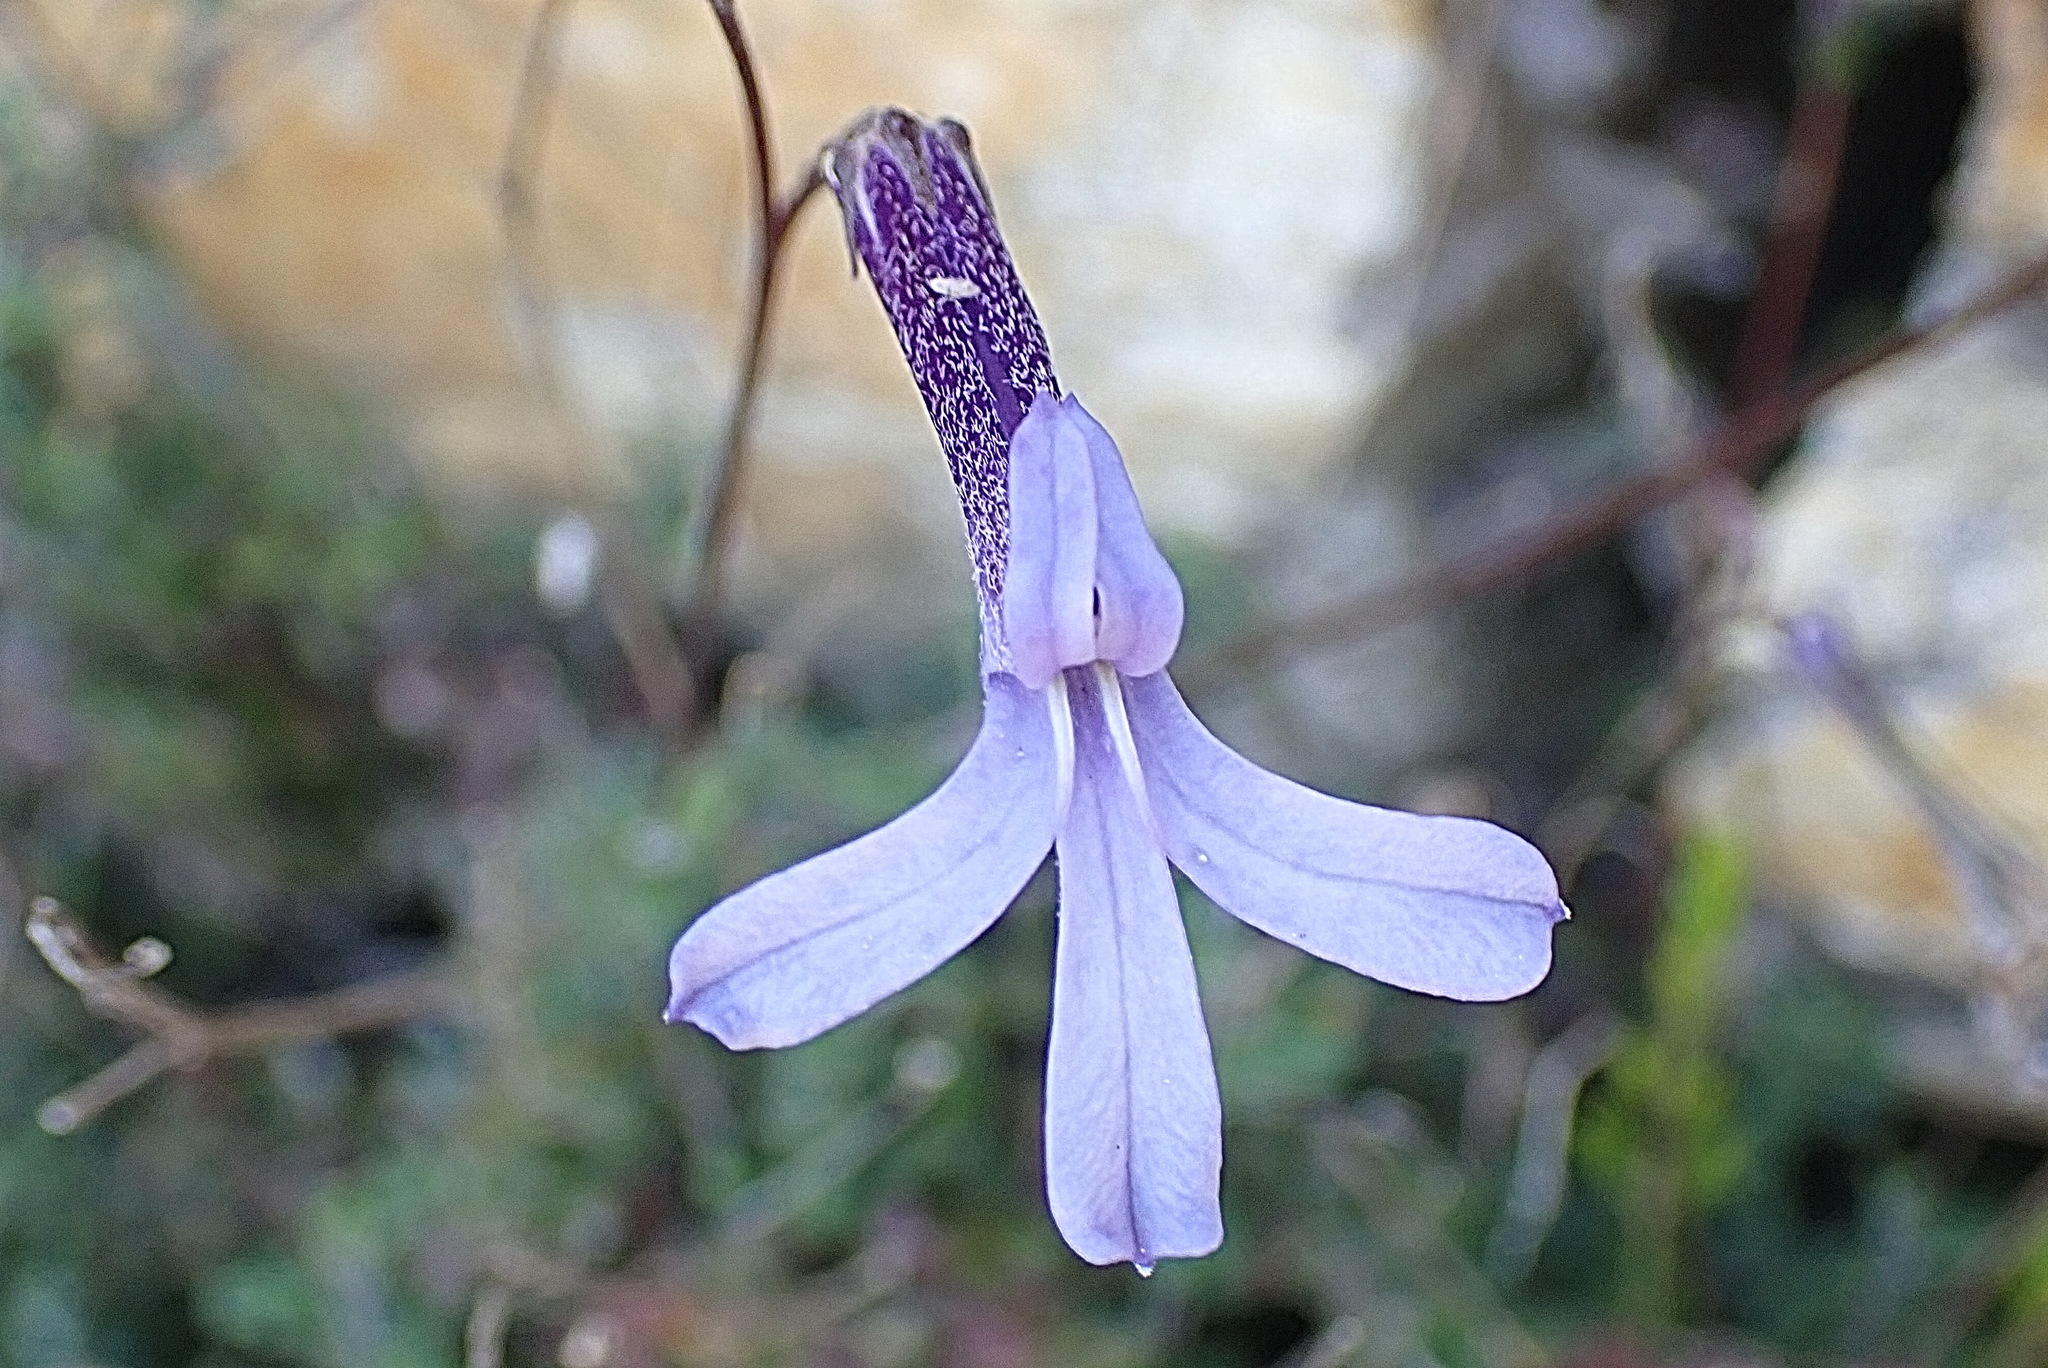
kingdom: Plantae
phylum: Tracheophyta
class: Magnoliopsida
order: Asterales
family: Campanulaceae
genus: Lobelia
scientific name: Lobelia dichroma
